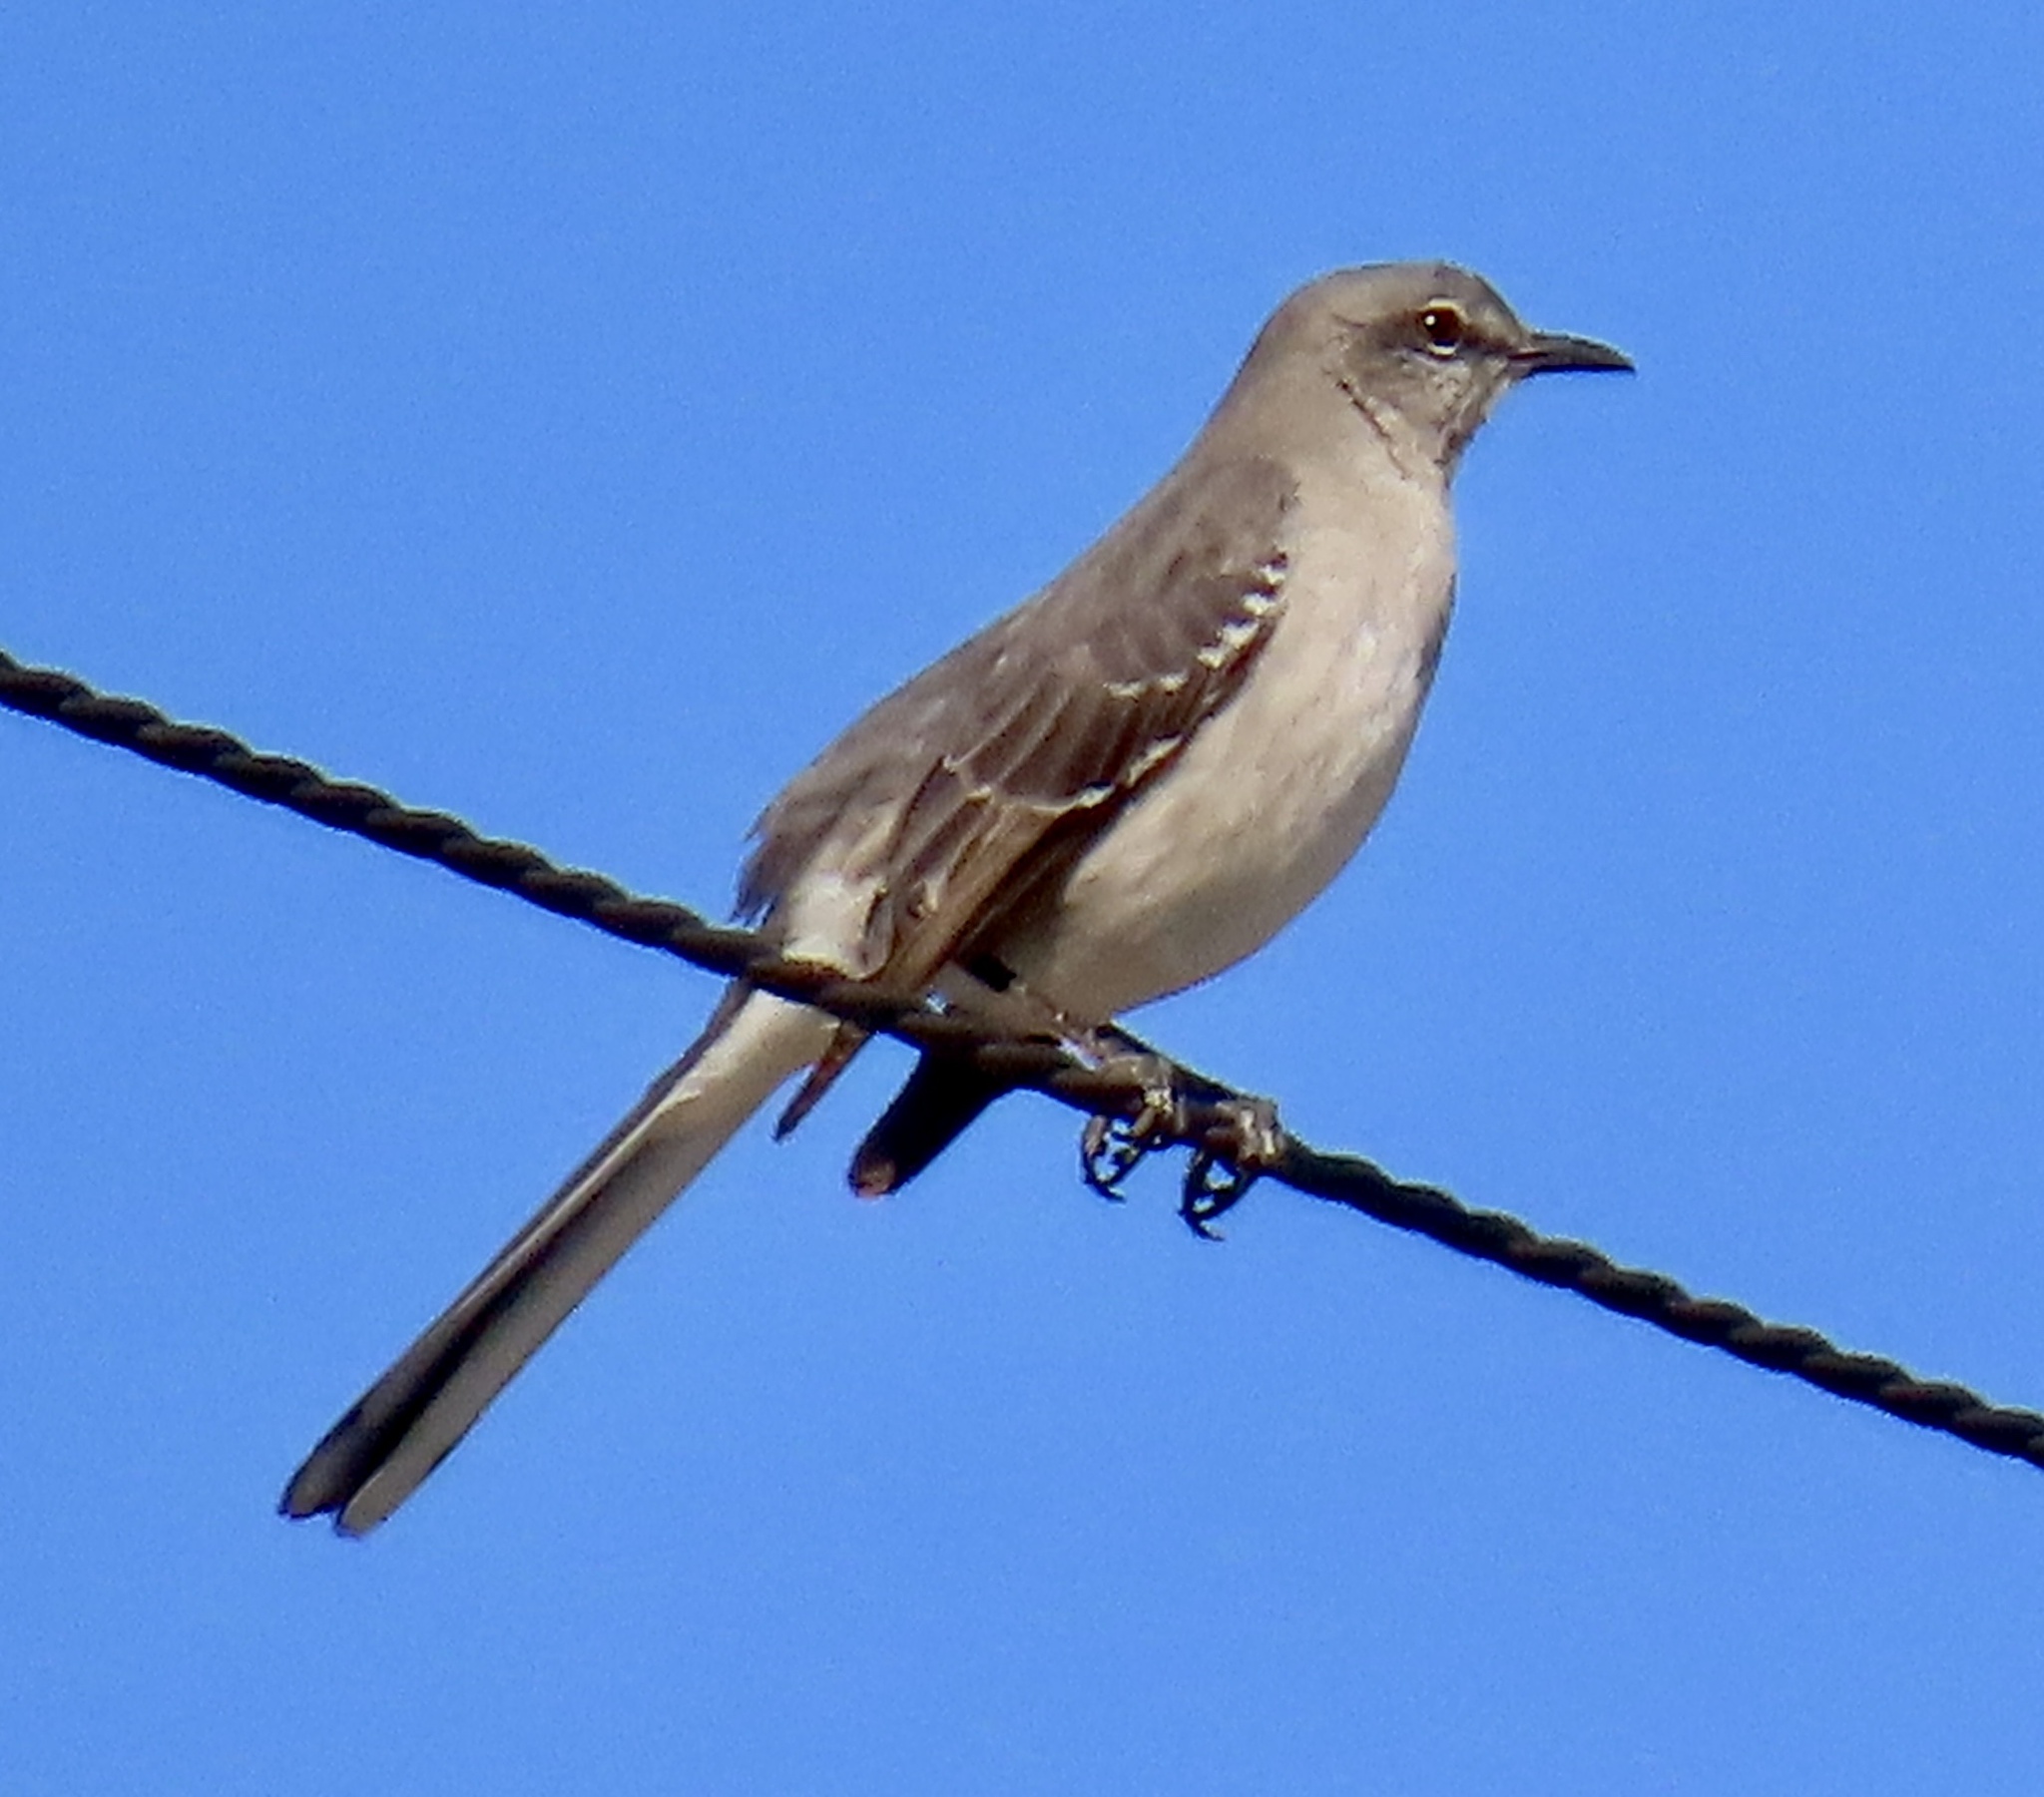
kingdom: Animalia
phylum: Chordata
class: Aves
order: Passeriformes
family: Mimidae
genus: Mimus
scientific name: Mimus polyglottos
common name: Northern mockingbird
